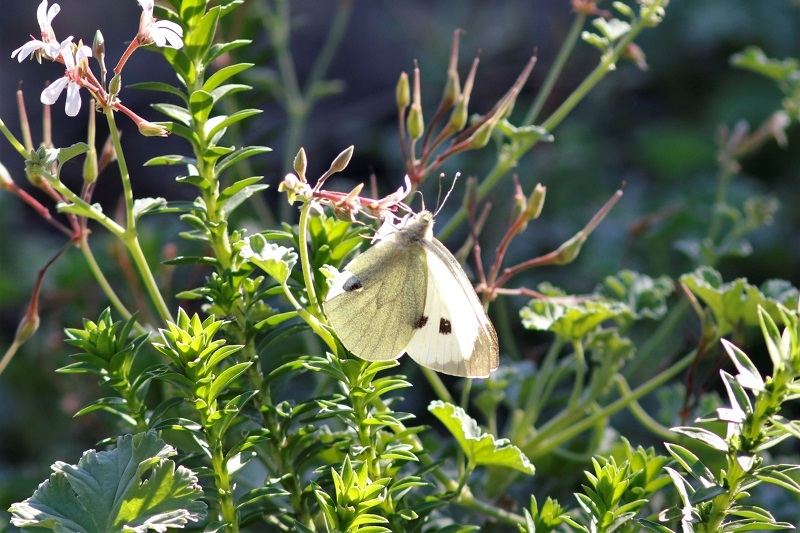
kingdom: Animalia
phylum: Arthropoda
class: Insecta
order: Lepidoptera
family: Pieridae
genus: Pieris
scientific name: Pieris brassicae
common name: Large white
